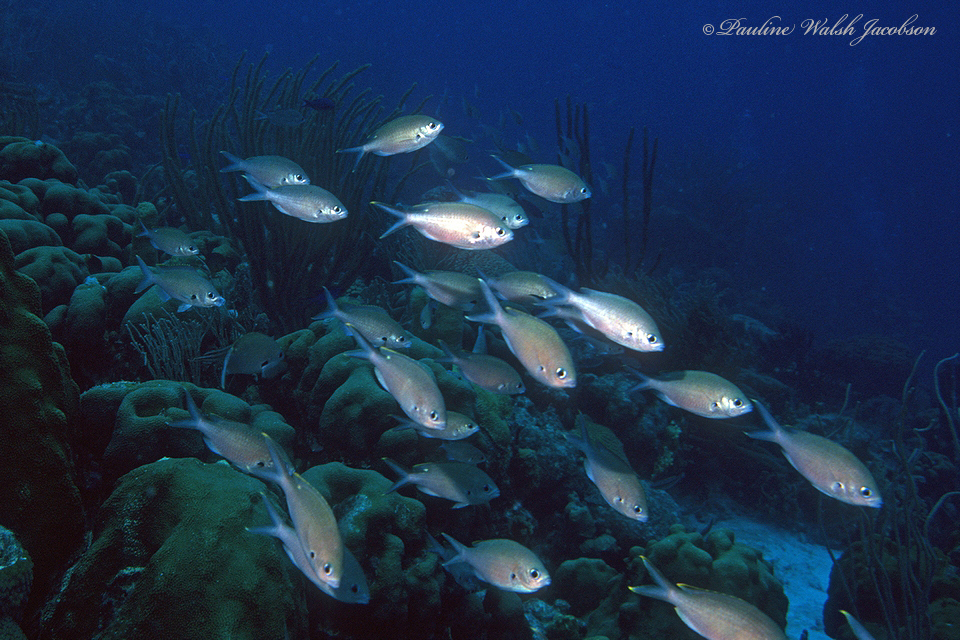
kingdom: Animalia
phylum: Chordata
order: Perciformes
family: Pomacentridae
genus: Chromis
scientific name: Chromis multilineata
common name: Brown chromis
